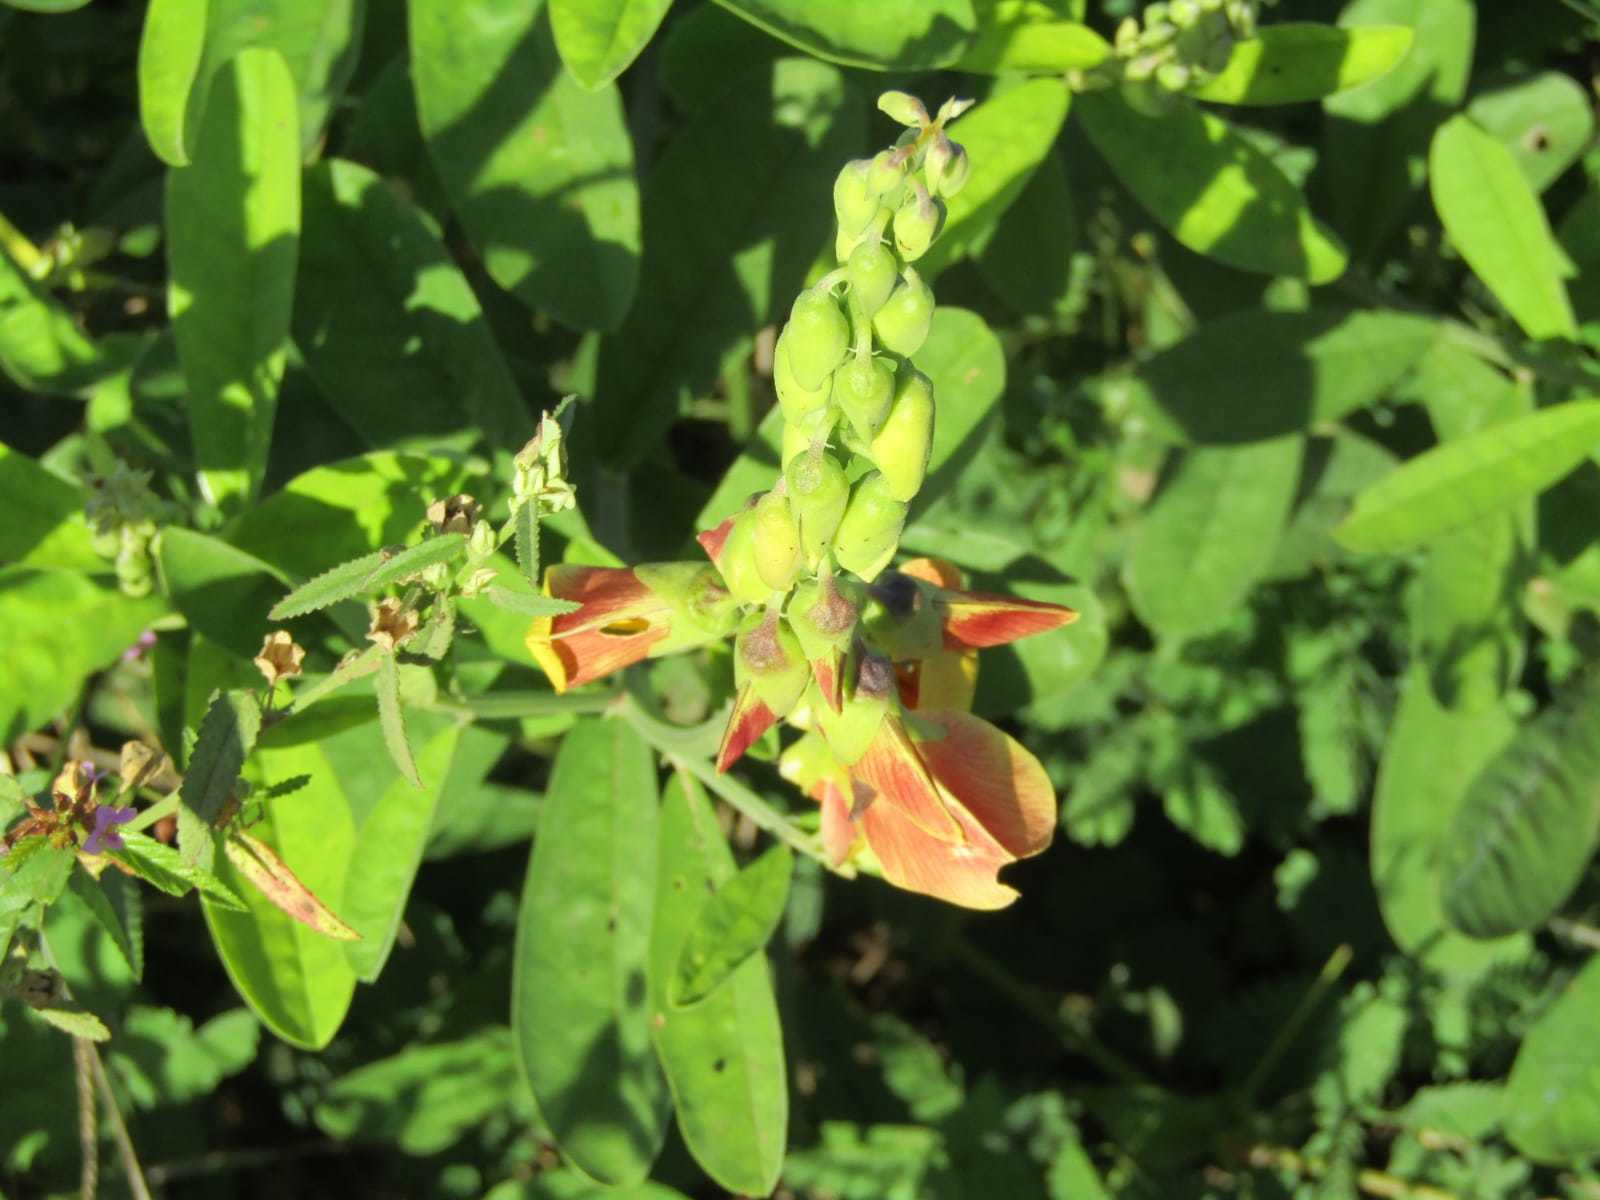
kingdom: Plantae
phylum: Tracheophyta
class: Magnoliopsida
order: Fabales
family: Fabaceae
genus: Crotalaria
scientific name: Crotalaria retusa
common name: Rattleweed
